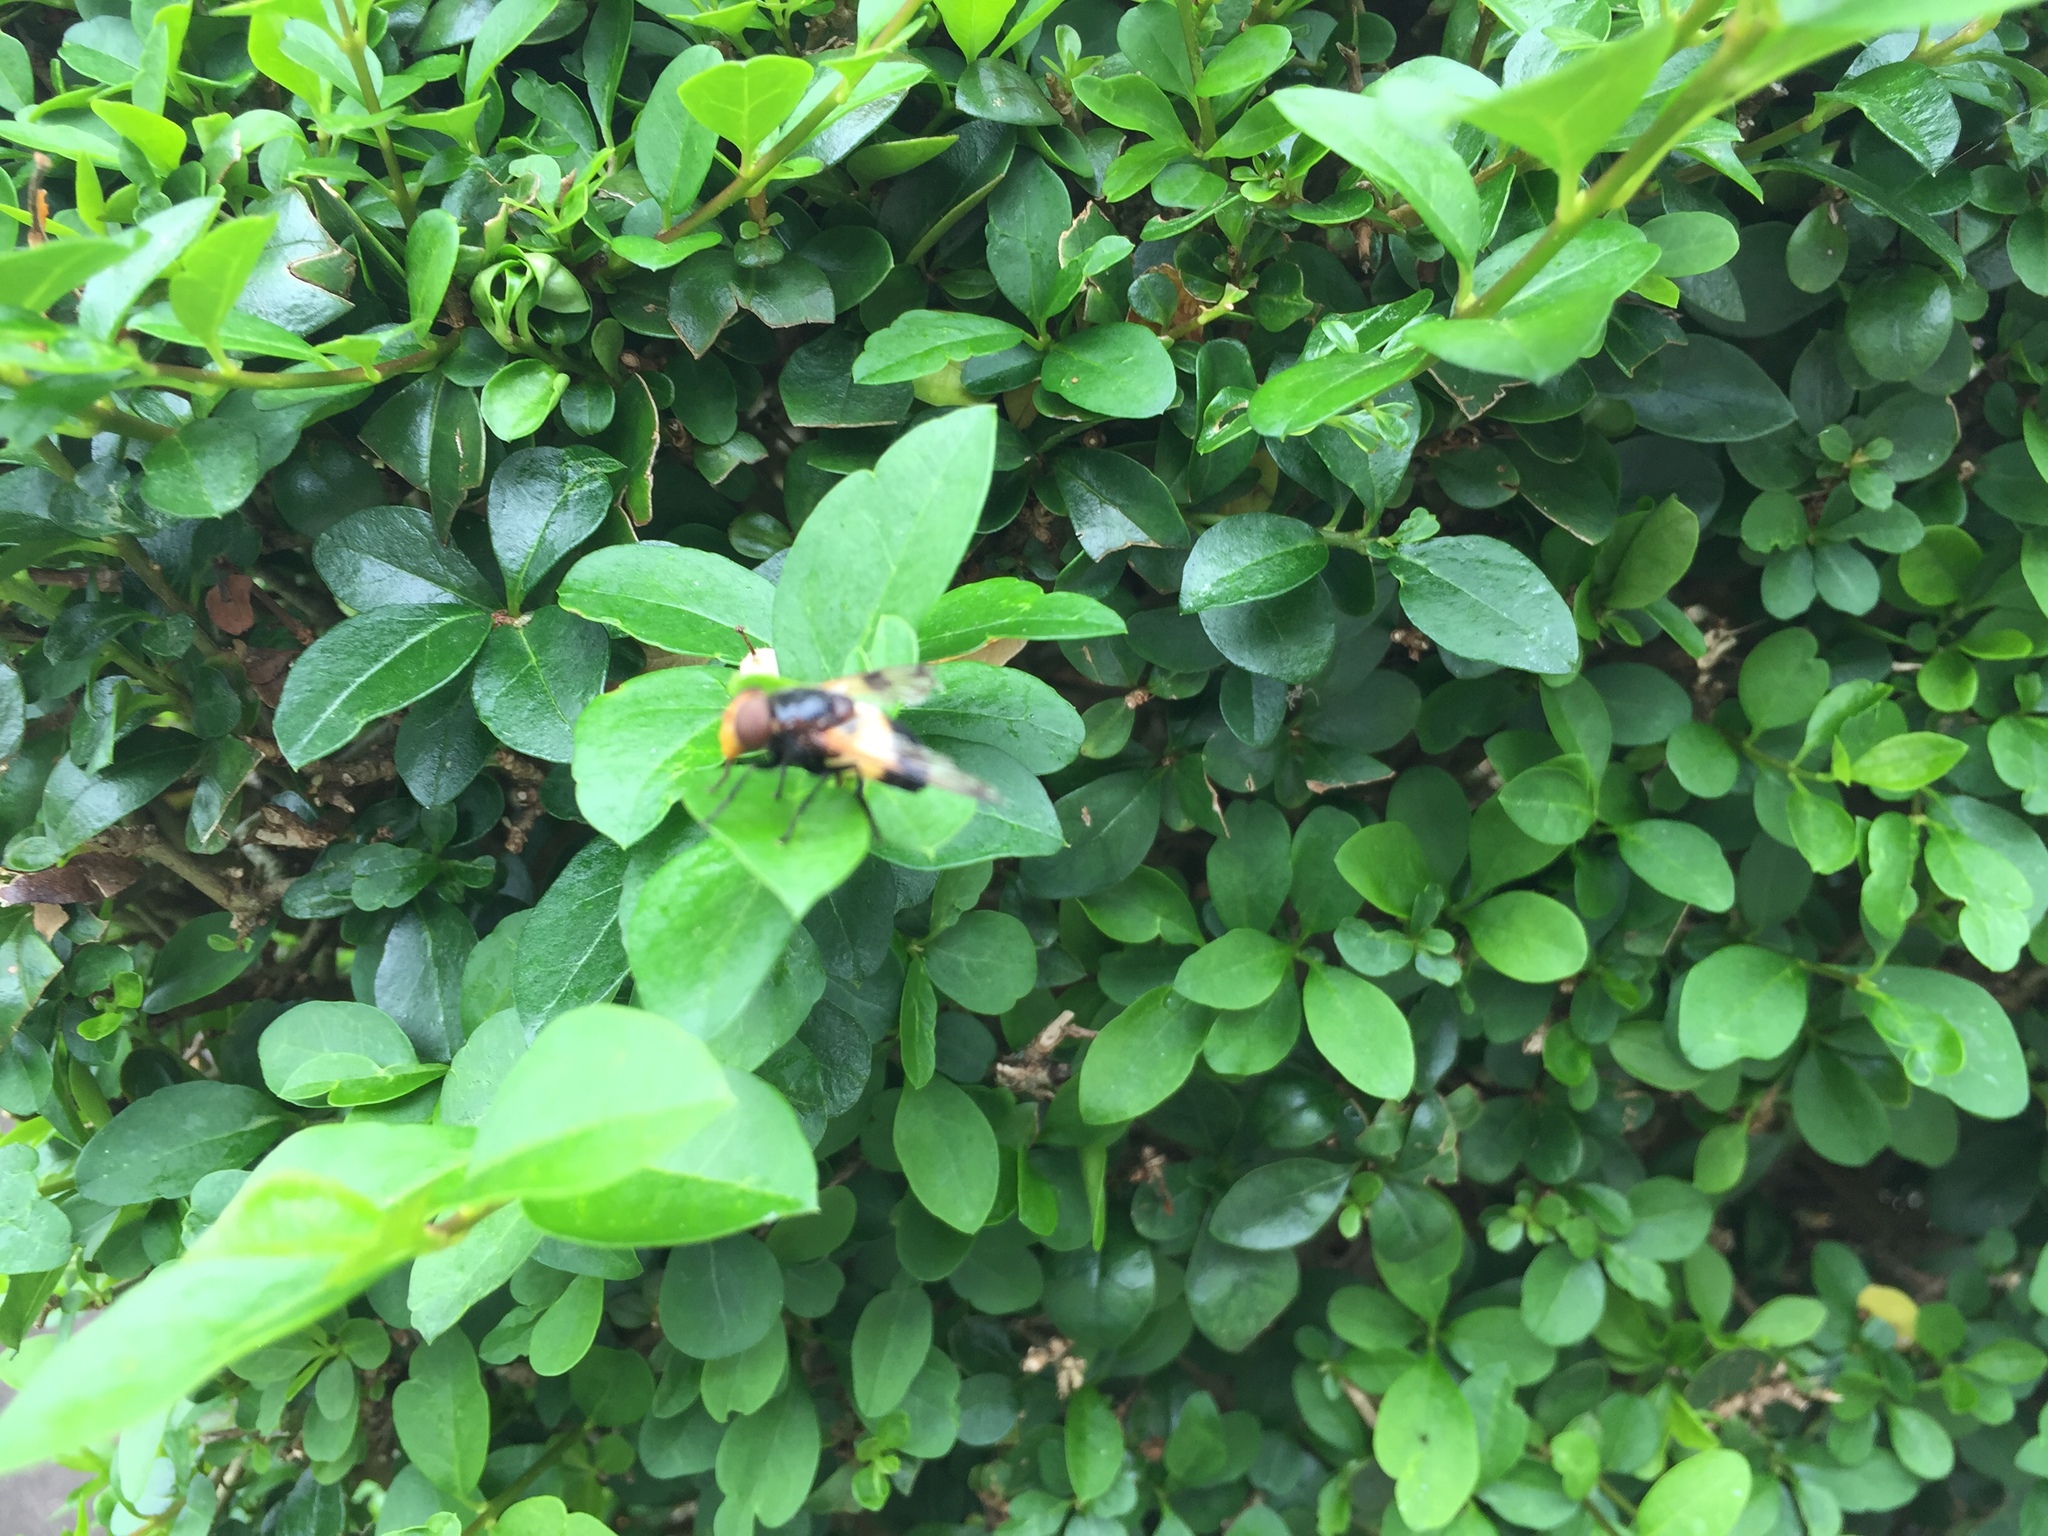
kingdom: Animalia
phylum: Arthropoda
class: Insecta
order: Diptera
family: Syrphidae
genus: Volucella
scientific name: Volucella pellucens
